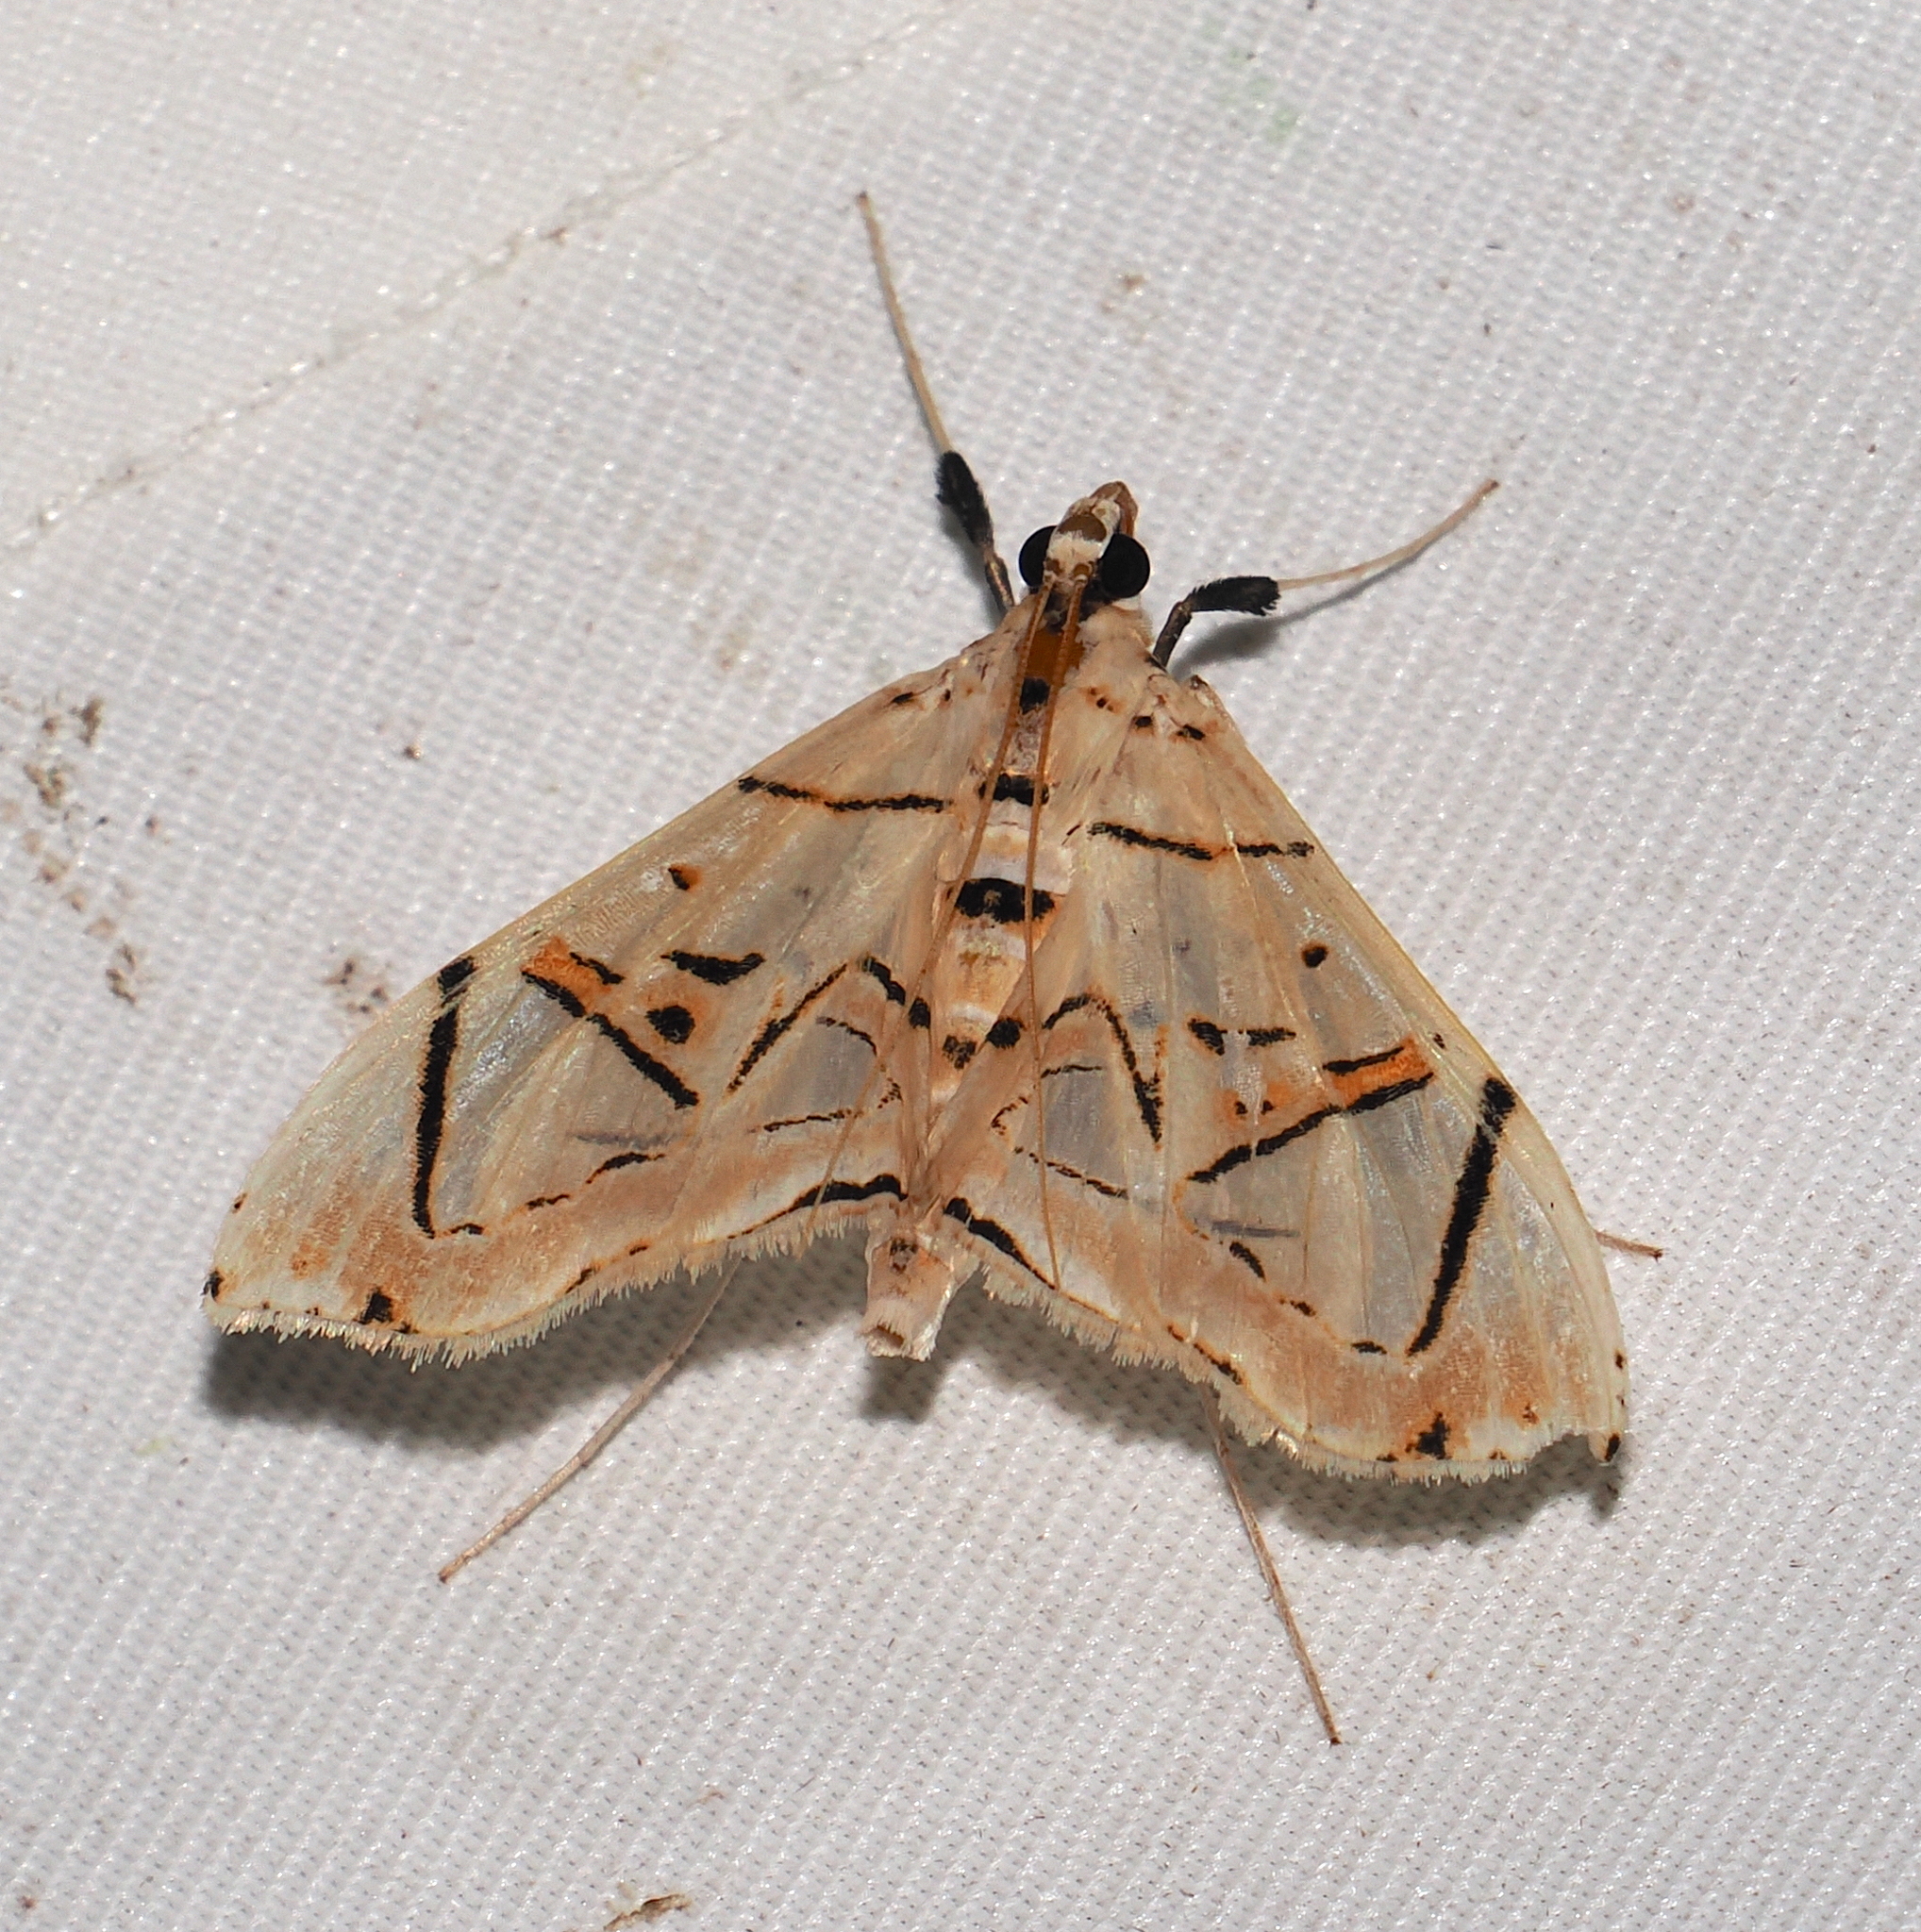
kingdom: Animalia
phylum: Arthropoda
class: Insecta
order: Lepidoptera
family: Crambidae
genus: Conchylodes
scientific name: Conchylodes
